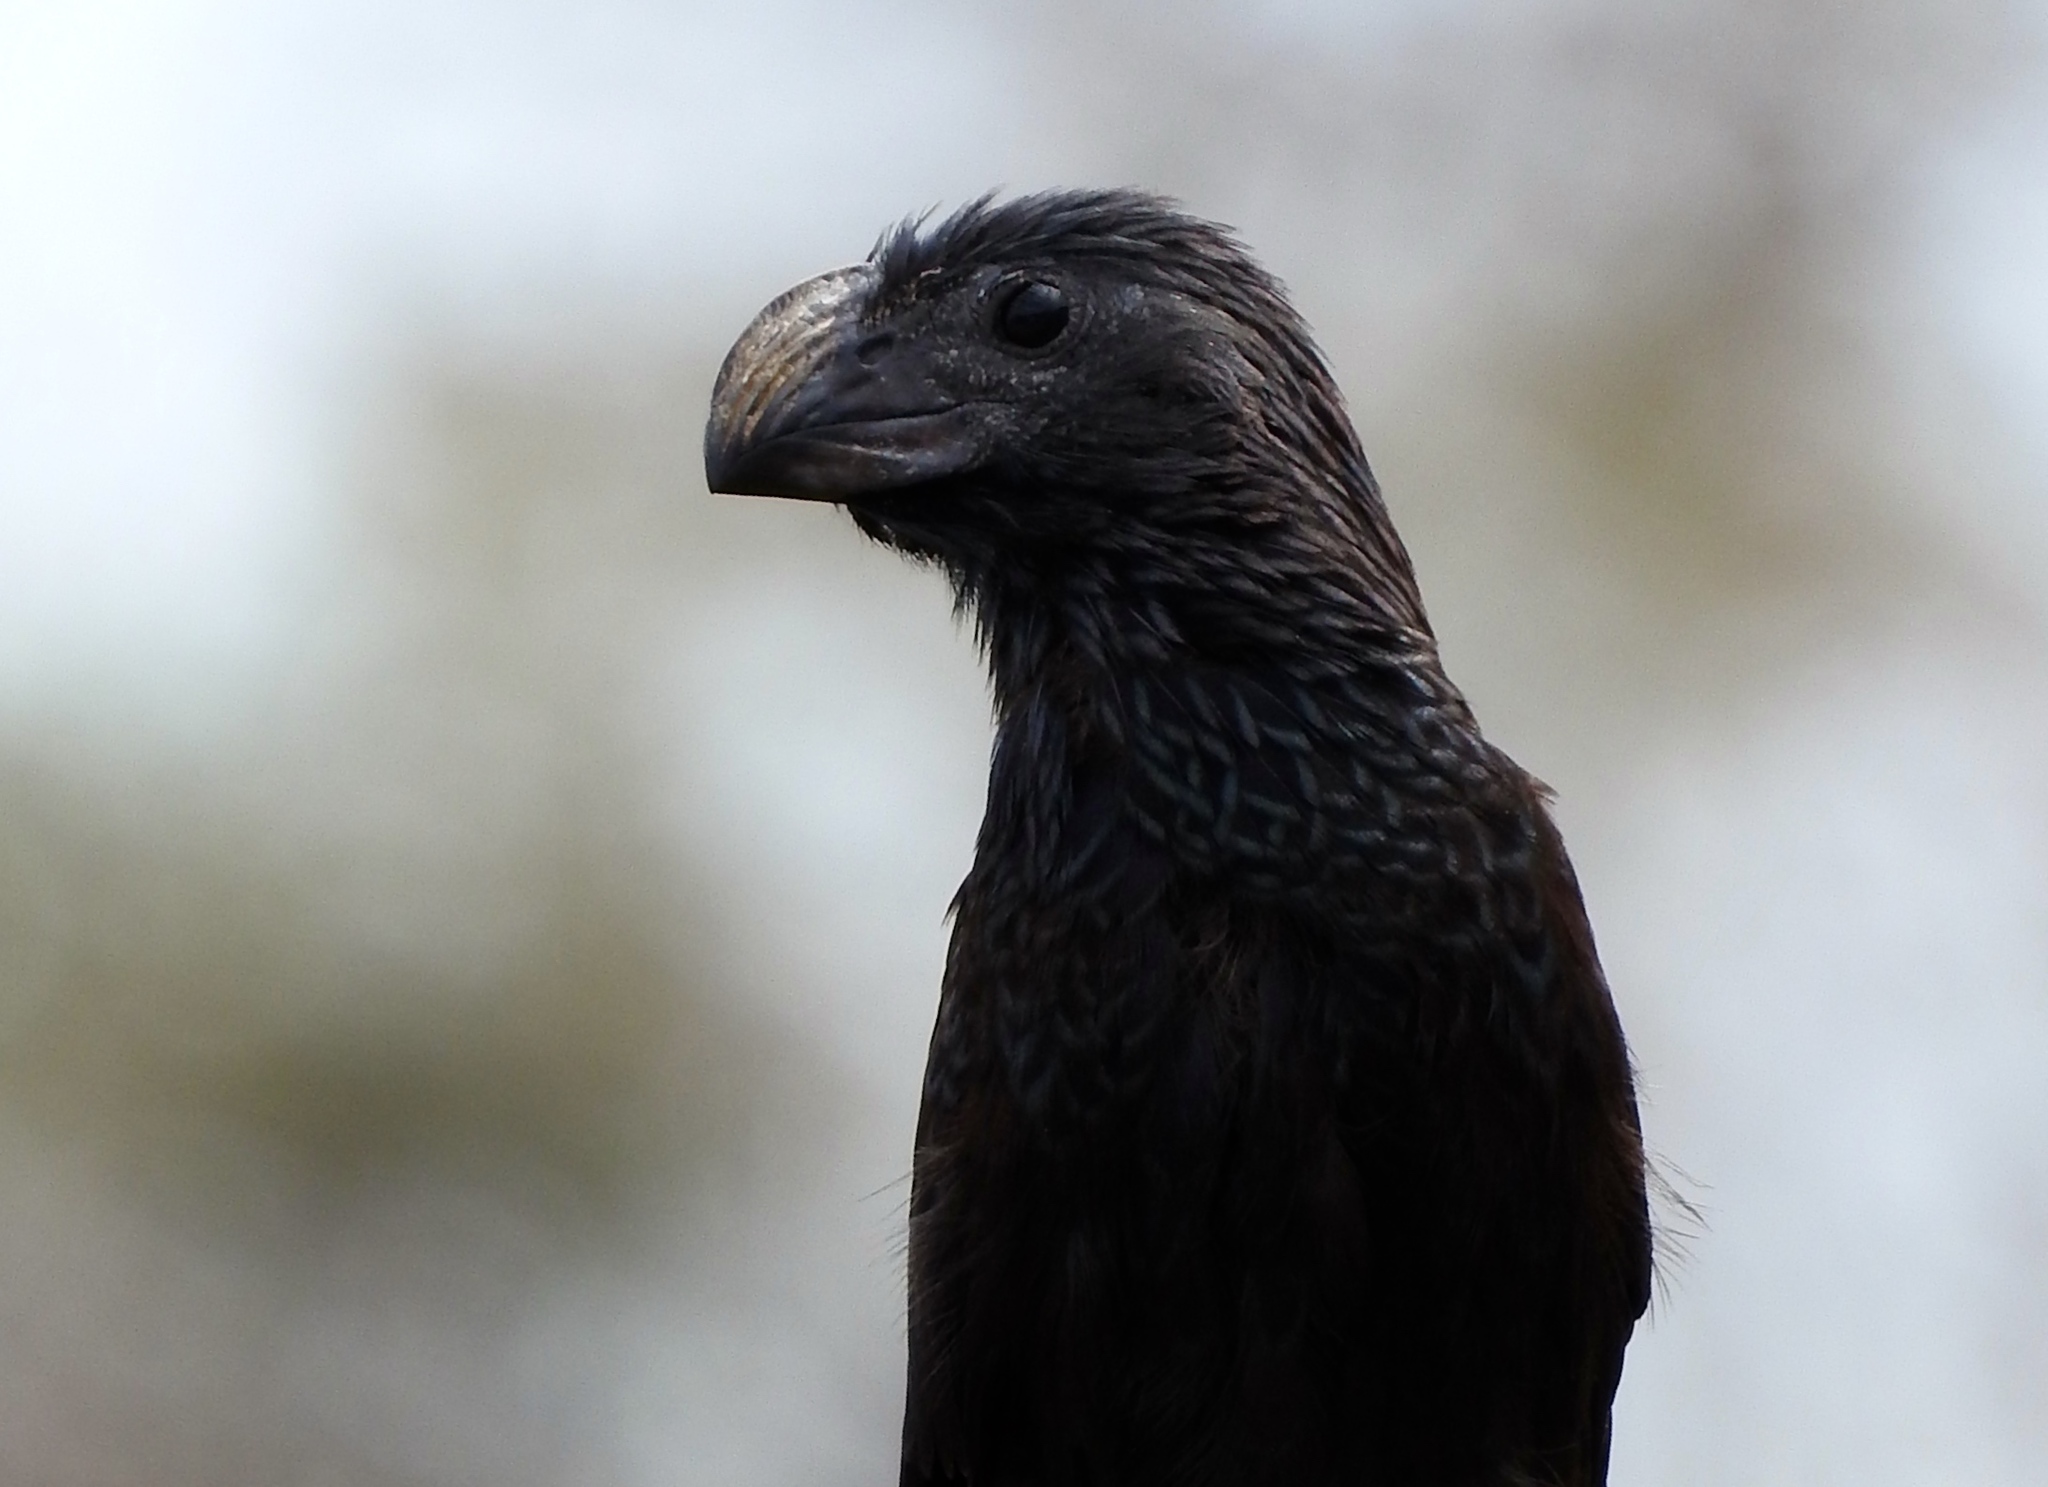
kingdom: Animalia
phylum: Chordata
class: Aves
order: Cuculiformes
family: Cuculidae
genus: Crotophaga
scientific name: Crotophaga sulcirostris
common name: Groove-billed ani
